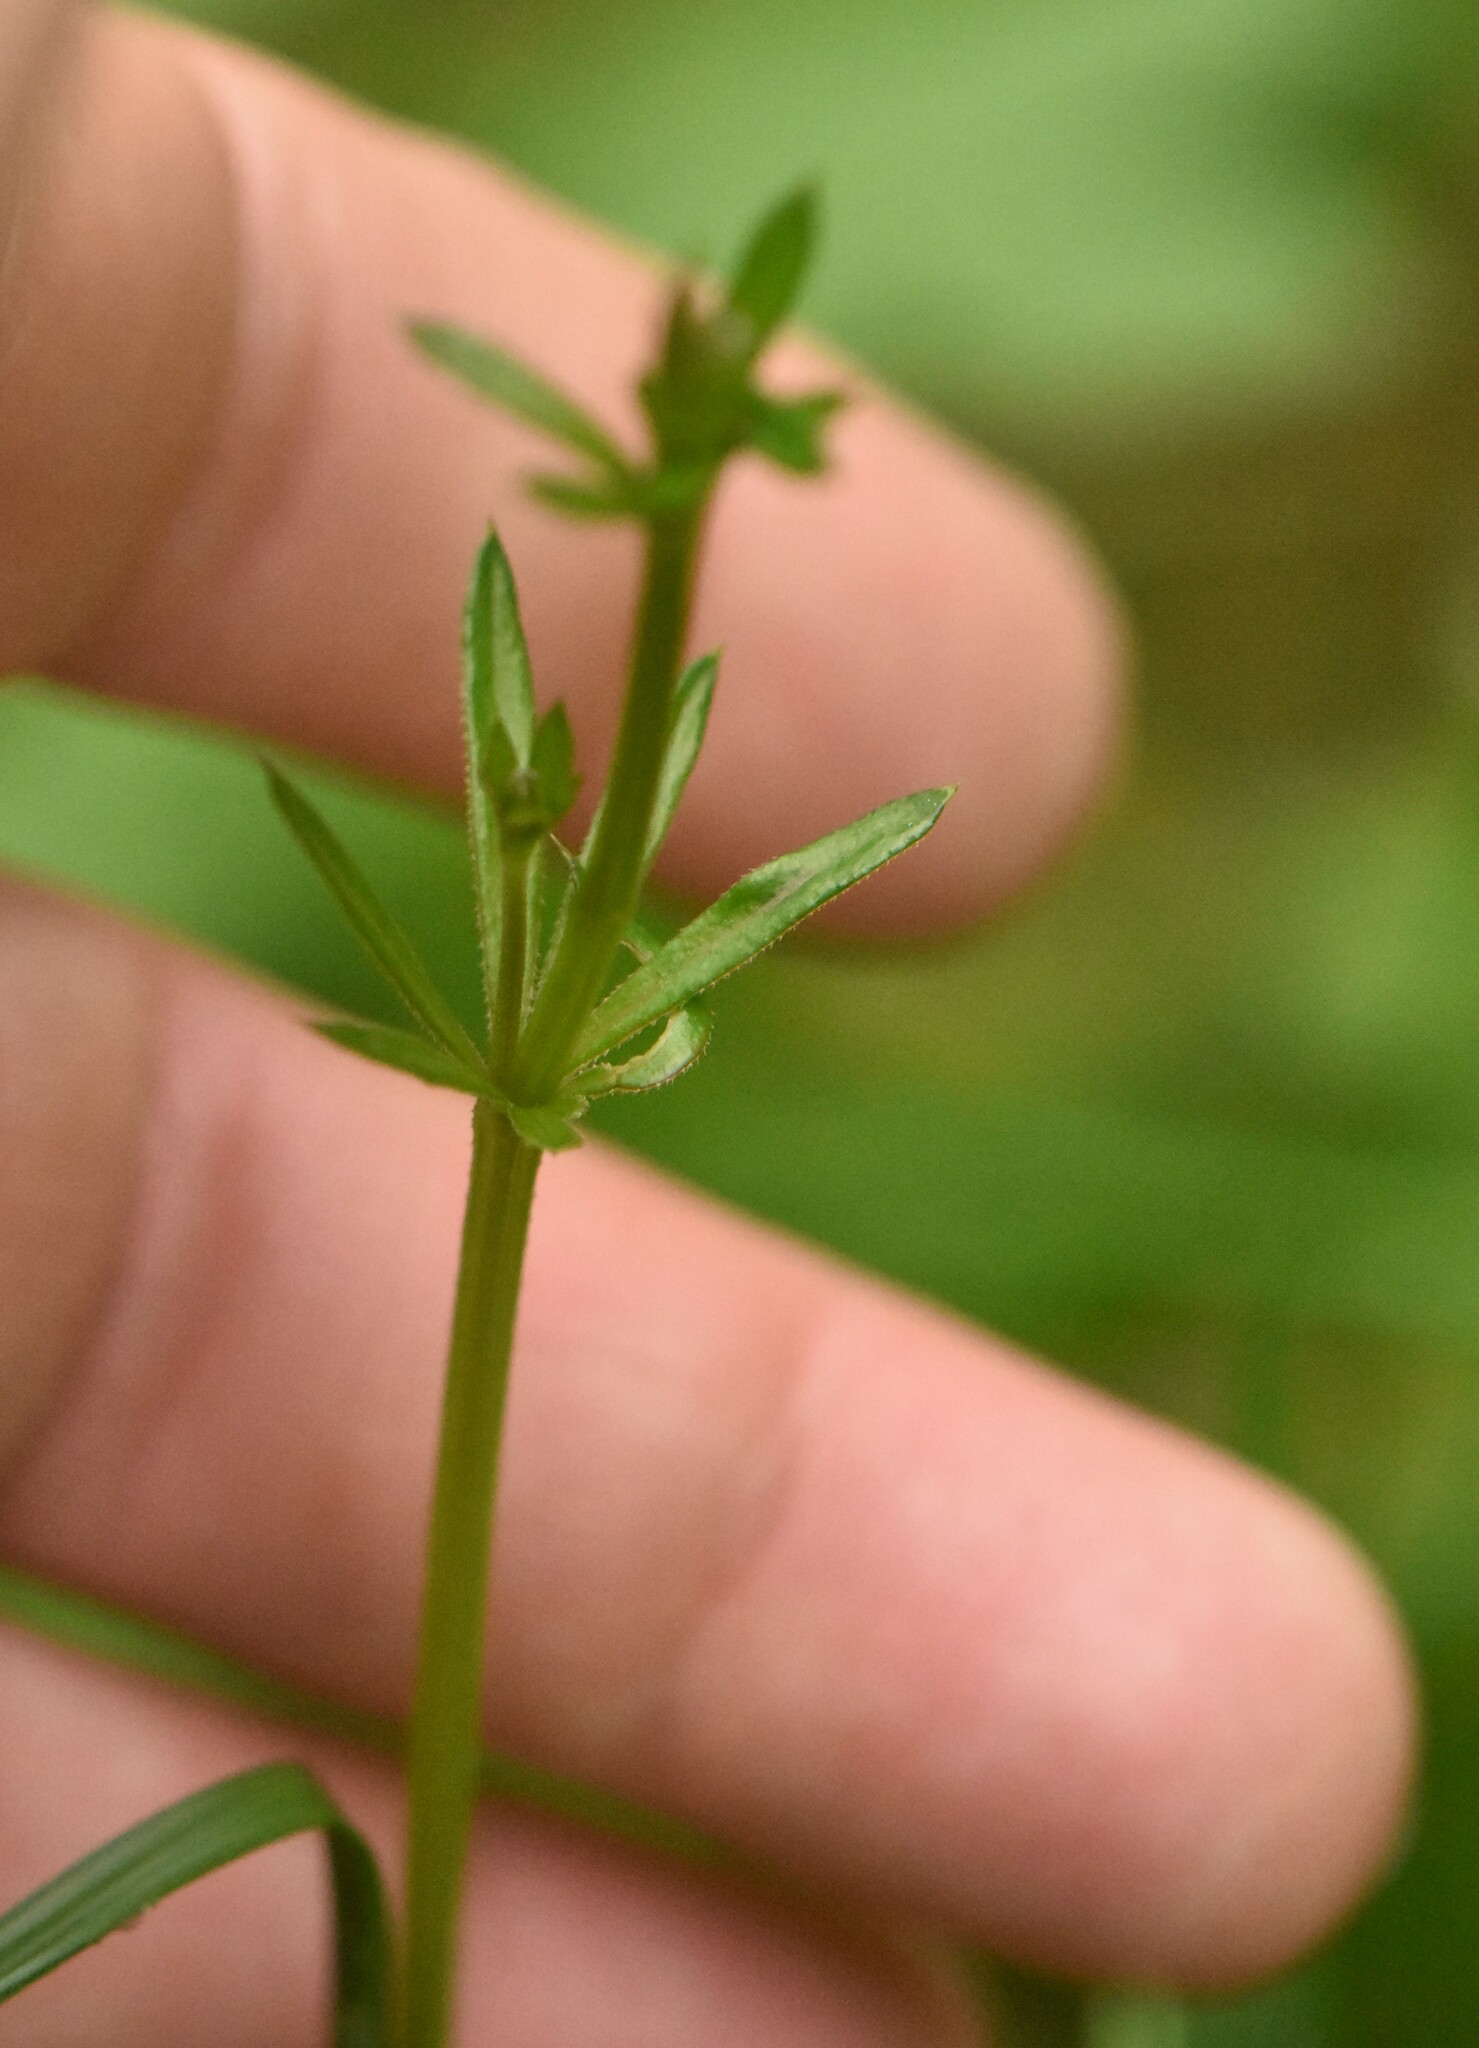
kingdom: Plantae
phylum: Tracheophyta
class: Magnoliopsida
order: Gentianales
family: Rubiaceae
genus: Galium
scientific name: Galium uliginosum
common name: Fen bedstraw
